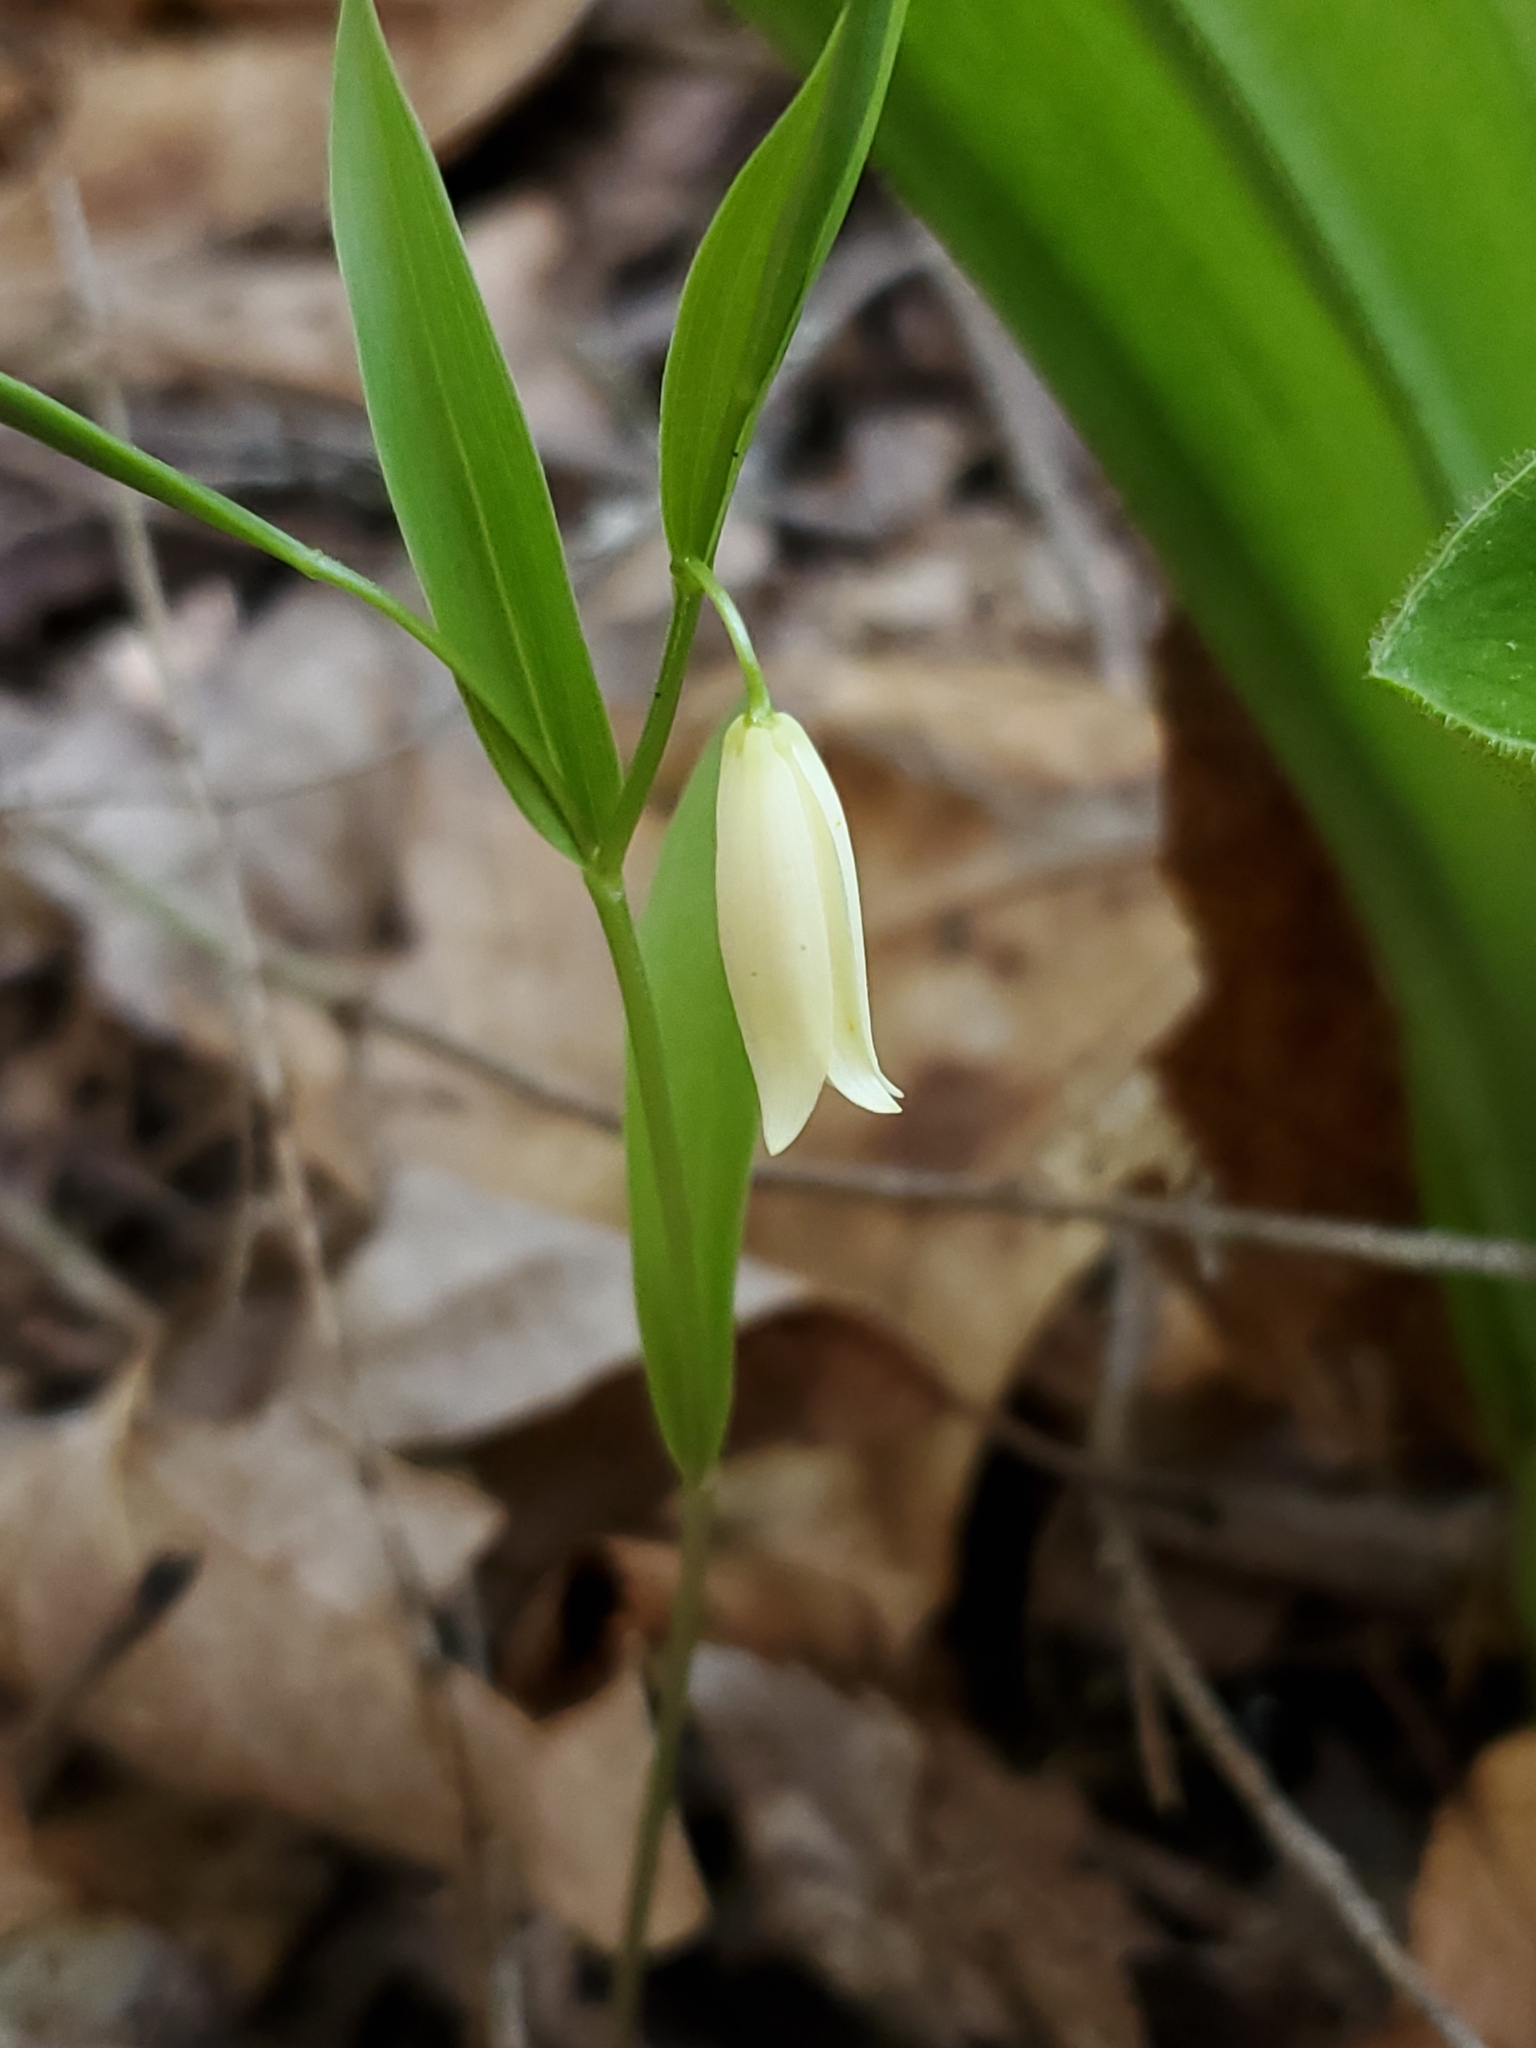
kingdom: Plantae
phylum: Tracheophyta
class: Liliopsida
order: Liliales
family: Colchicaceae
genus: Uvularia
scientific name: Uvularia puberula
